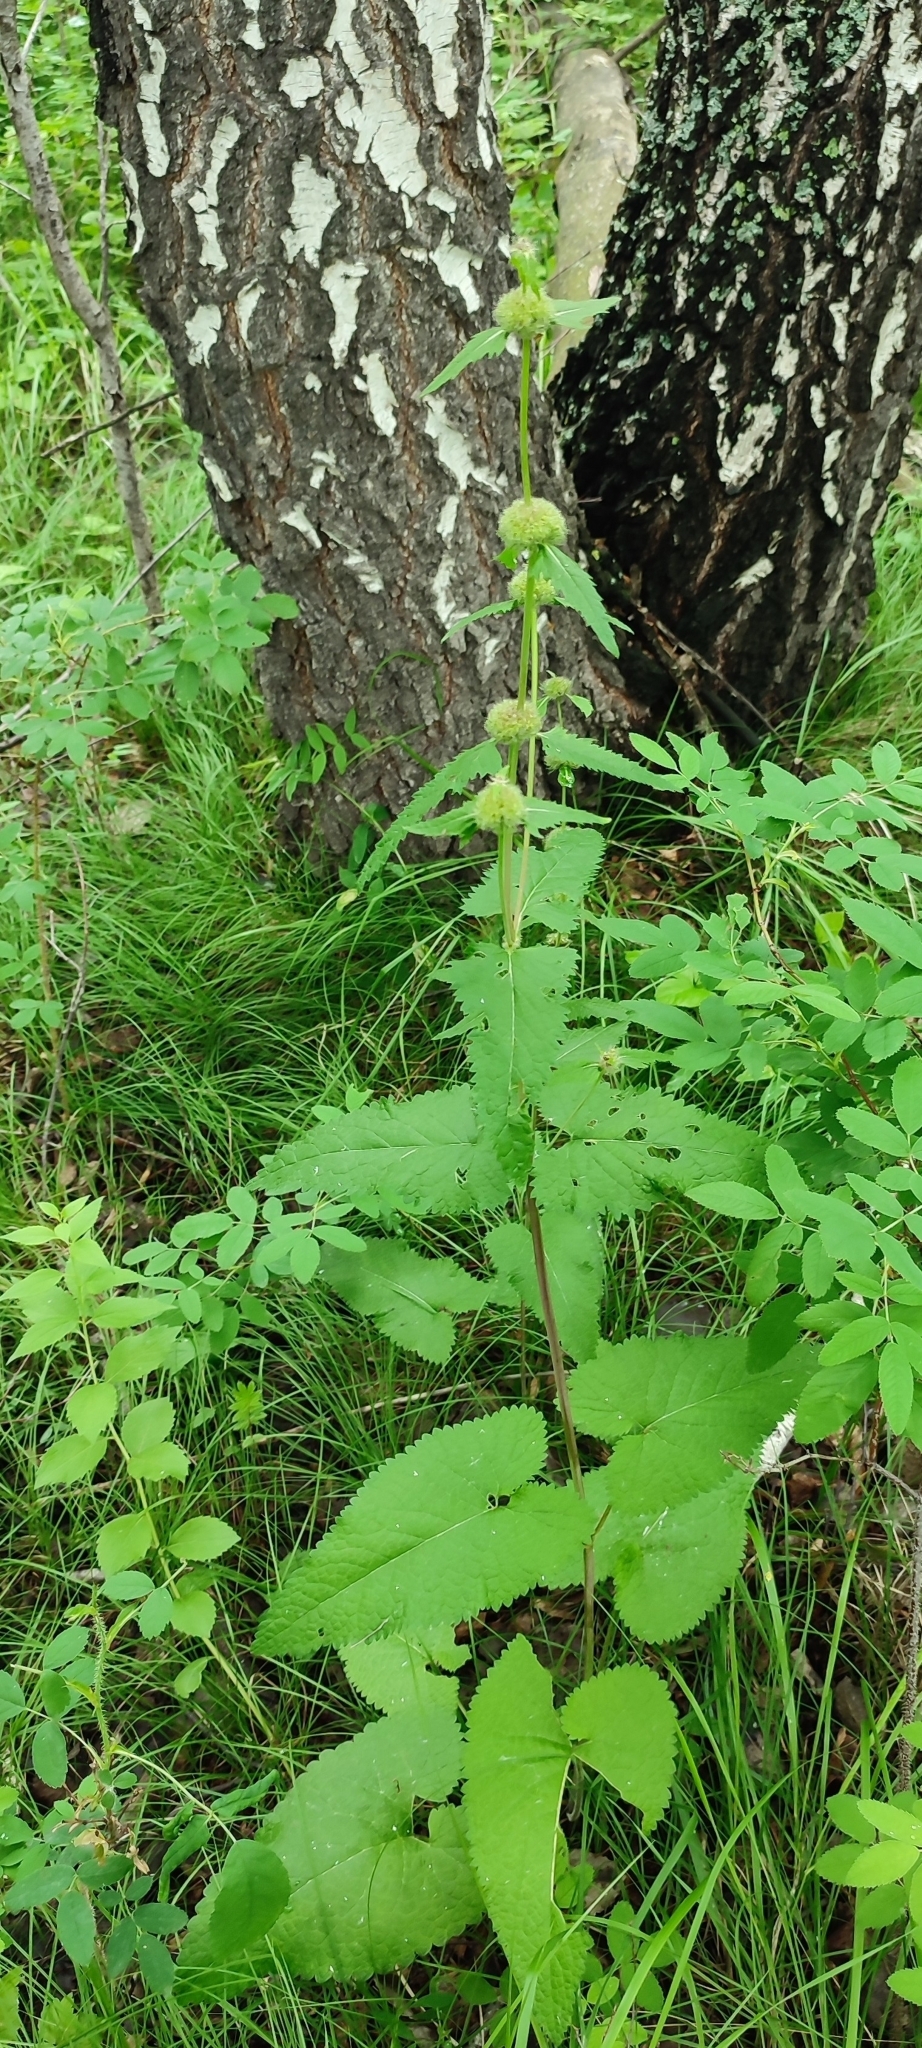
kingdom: Plantae
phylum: Tracheophyta
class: Magnoliopsida
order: Lamiales
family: Lamiaceae
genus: Phlomoides
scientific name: Phlomoides tuberosa
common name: Tuberous jerusalem sage
